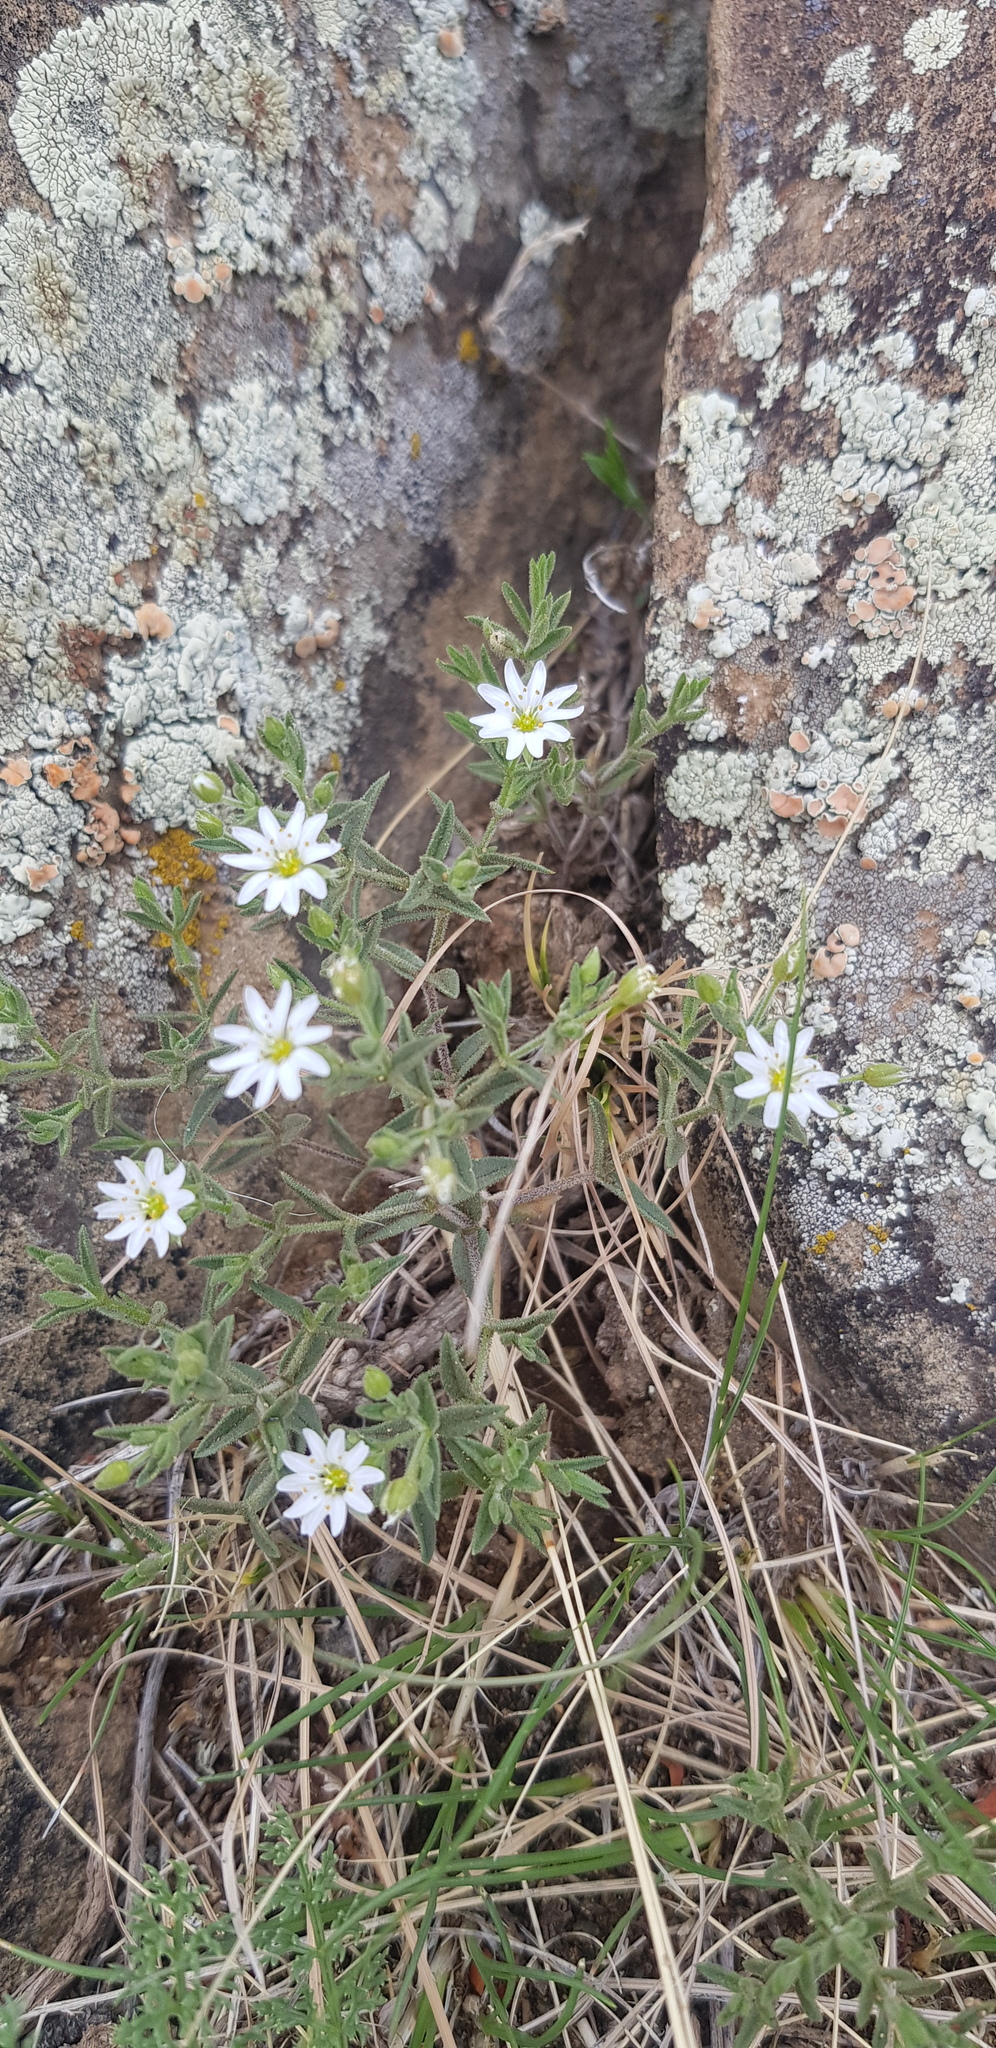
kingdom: Plantae
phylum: Tracheophyta
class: Magnoliopsida
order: Caryophyllales
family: Caryophyllaceae
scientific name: Caryophyllaceae
